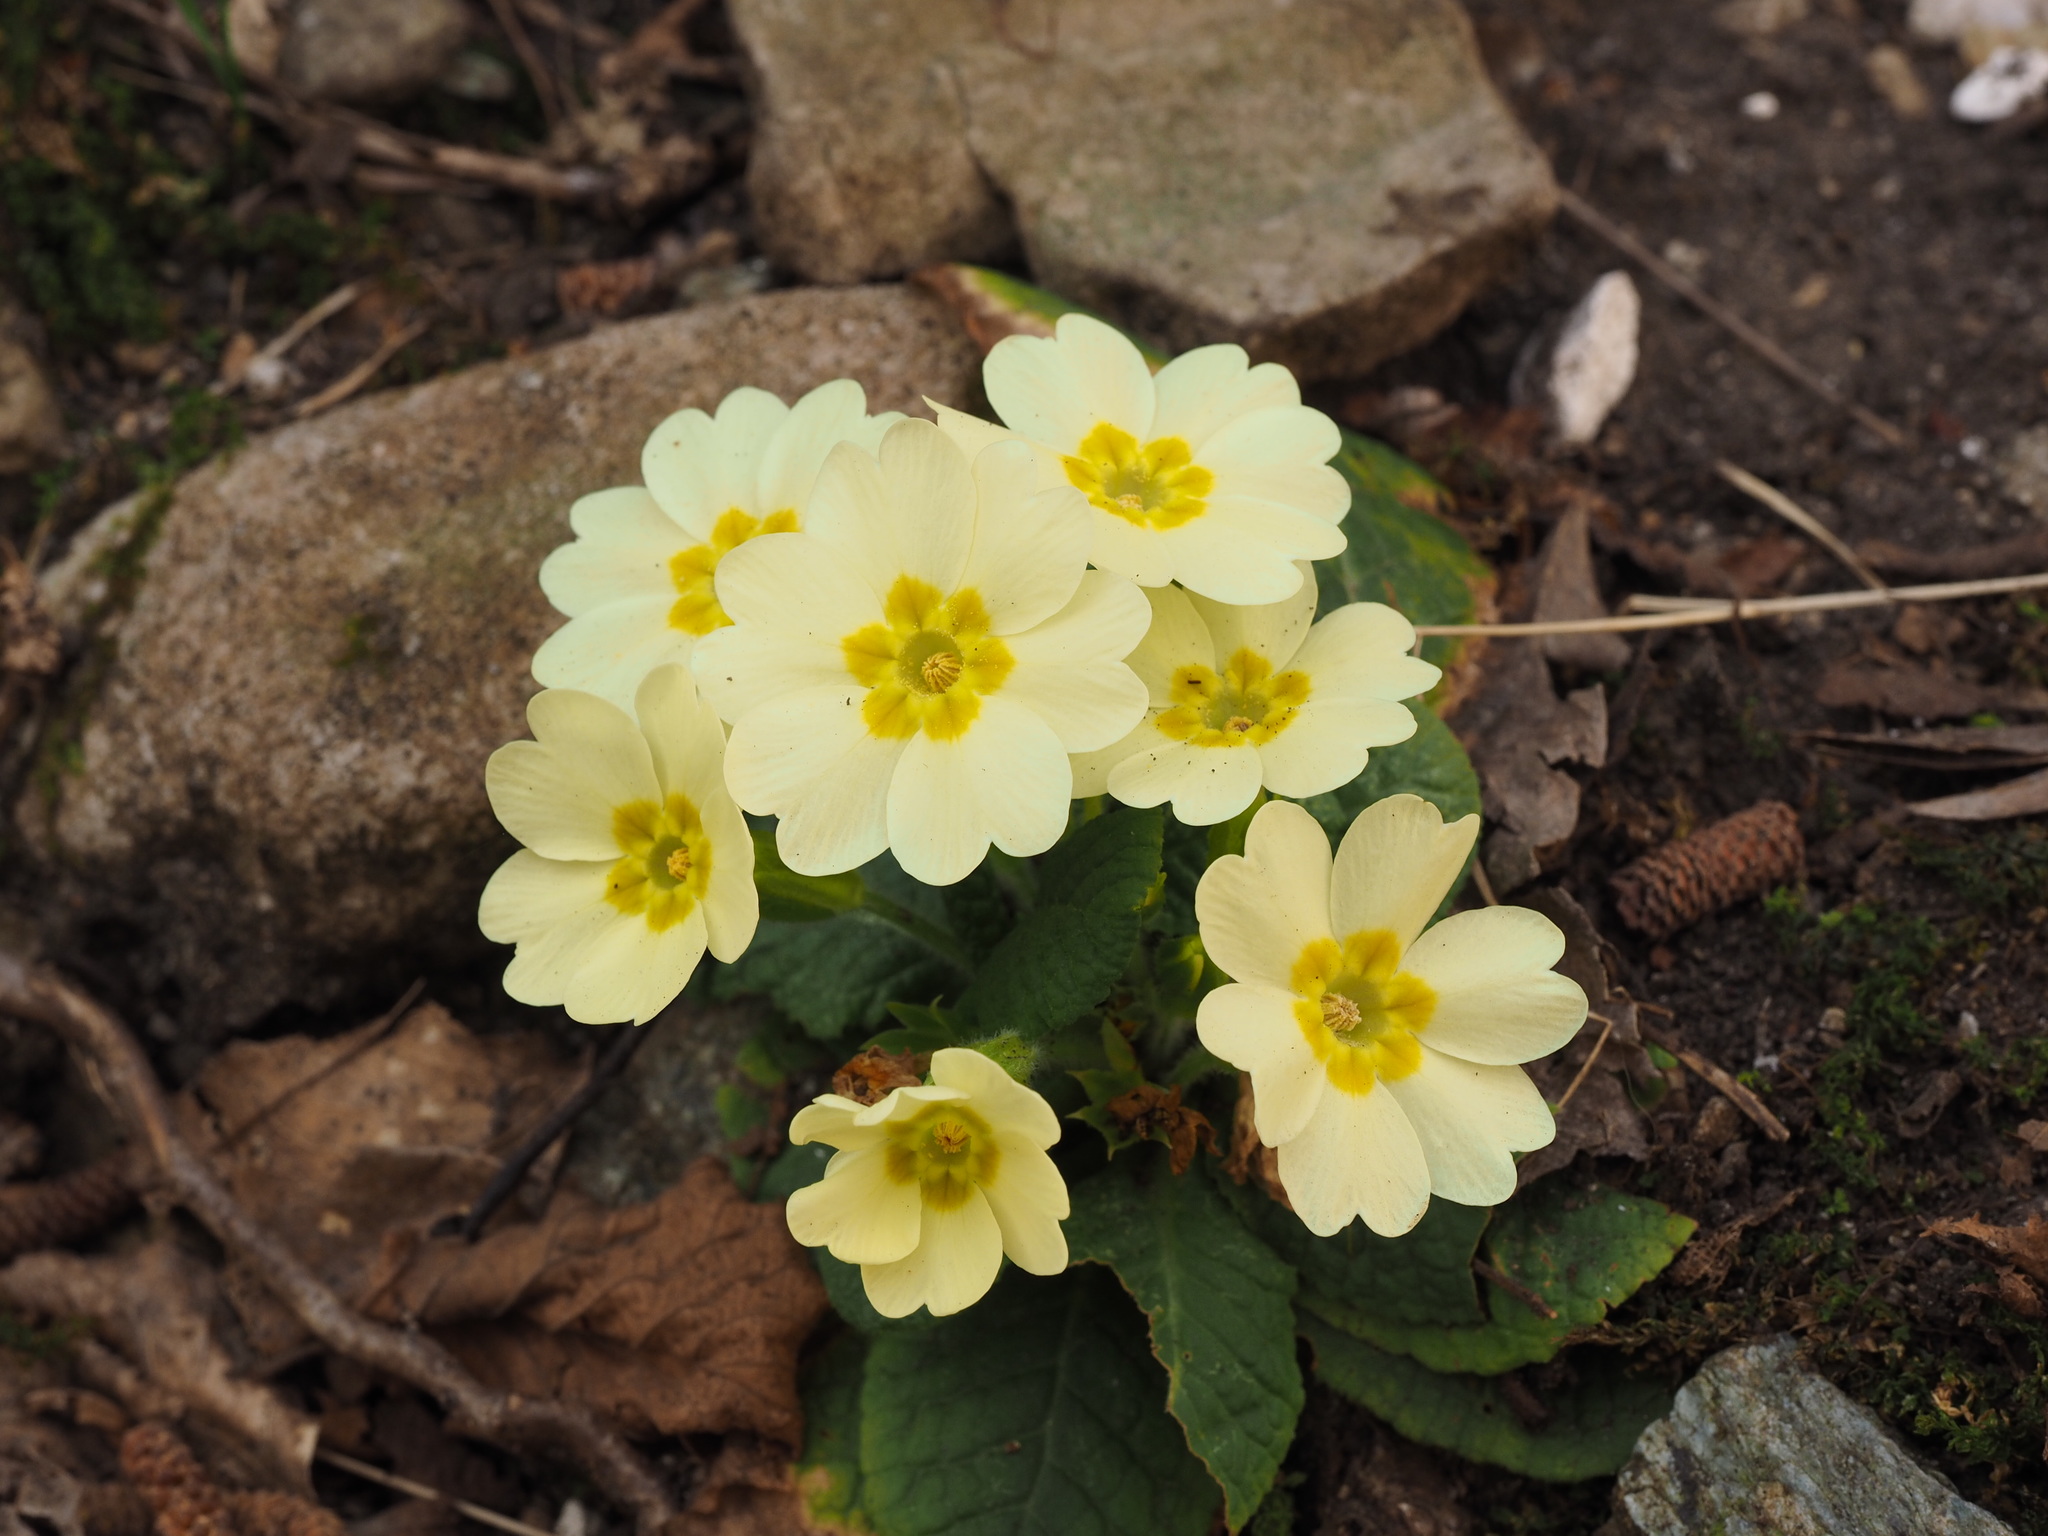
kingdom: Plantae
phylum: Tracheophyta
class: Magnoliopsida
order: Ericales
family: Primulaceae
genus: Primula
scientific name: Primula vulgaris
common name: Primrose
